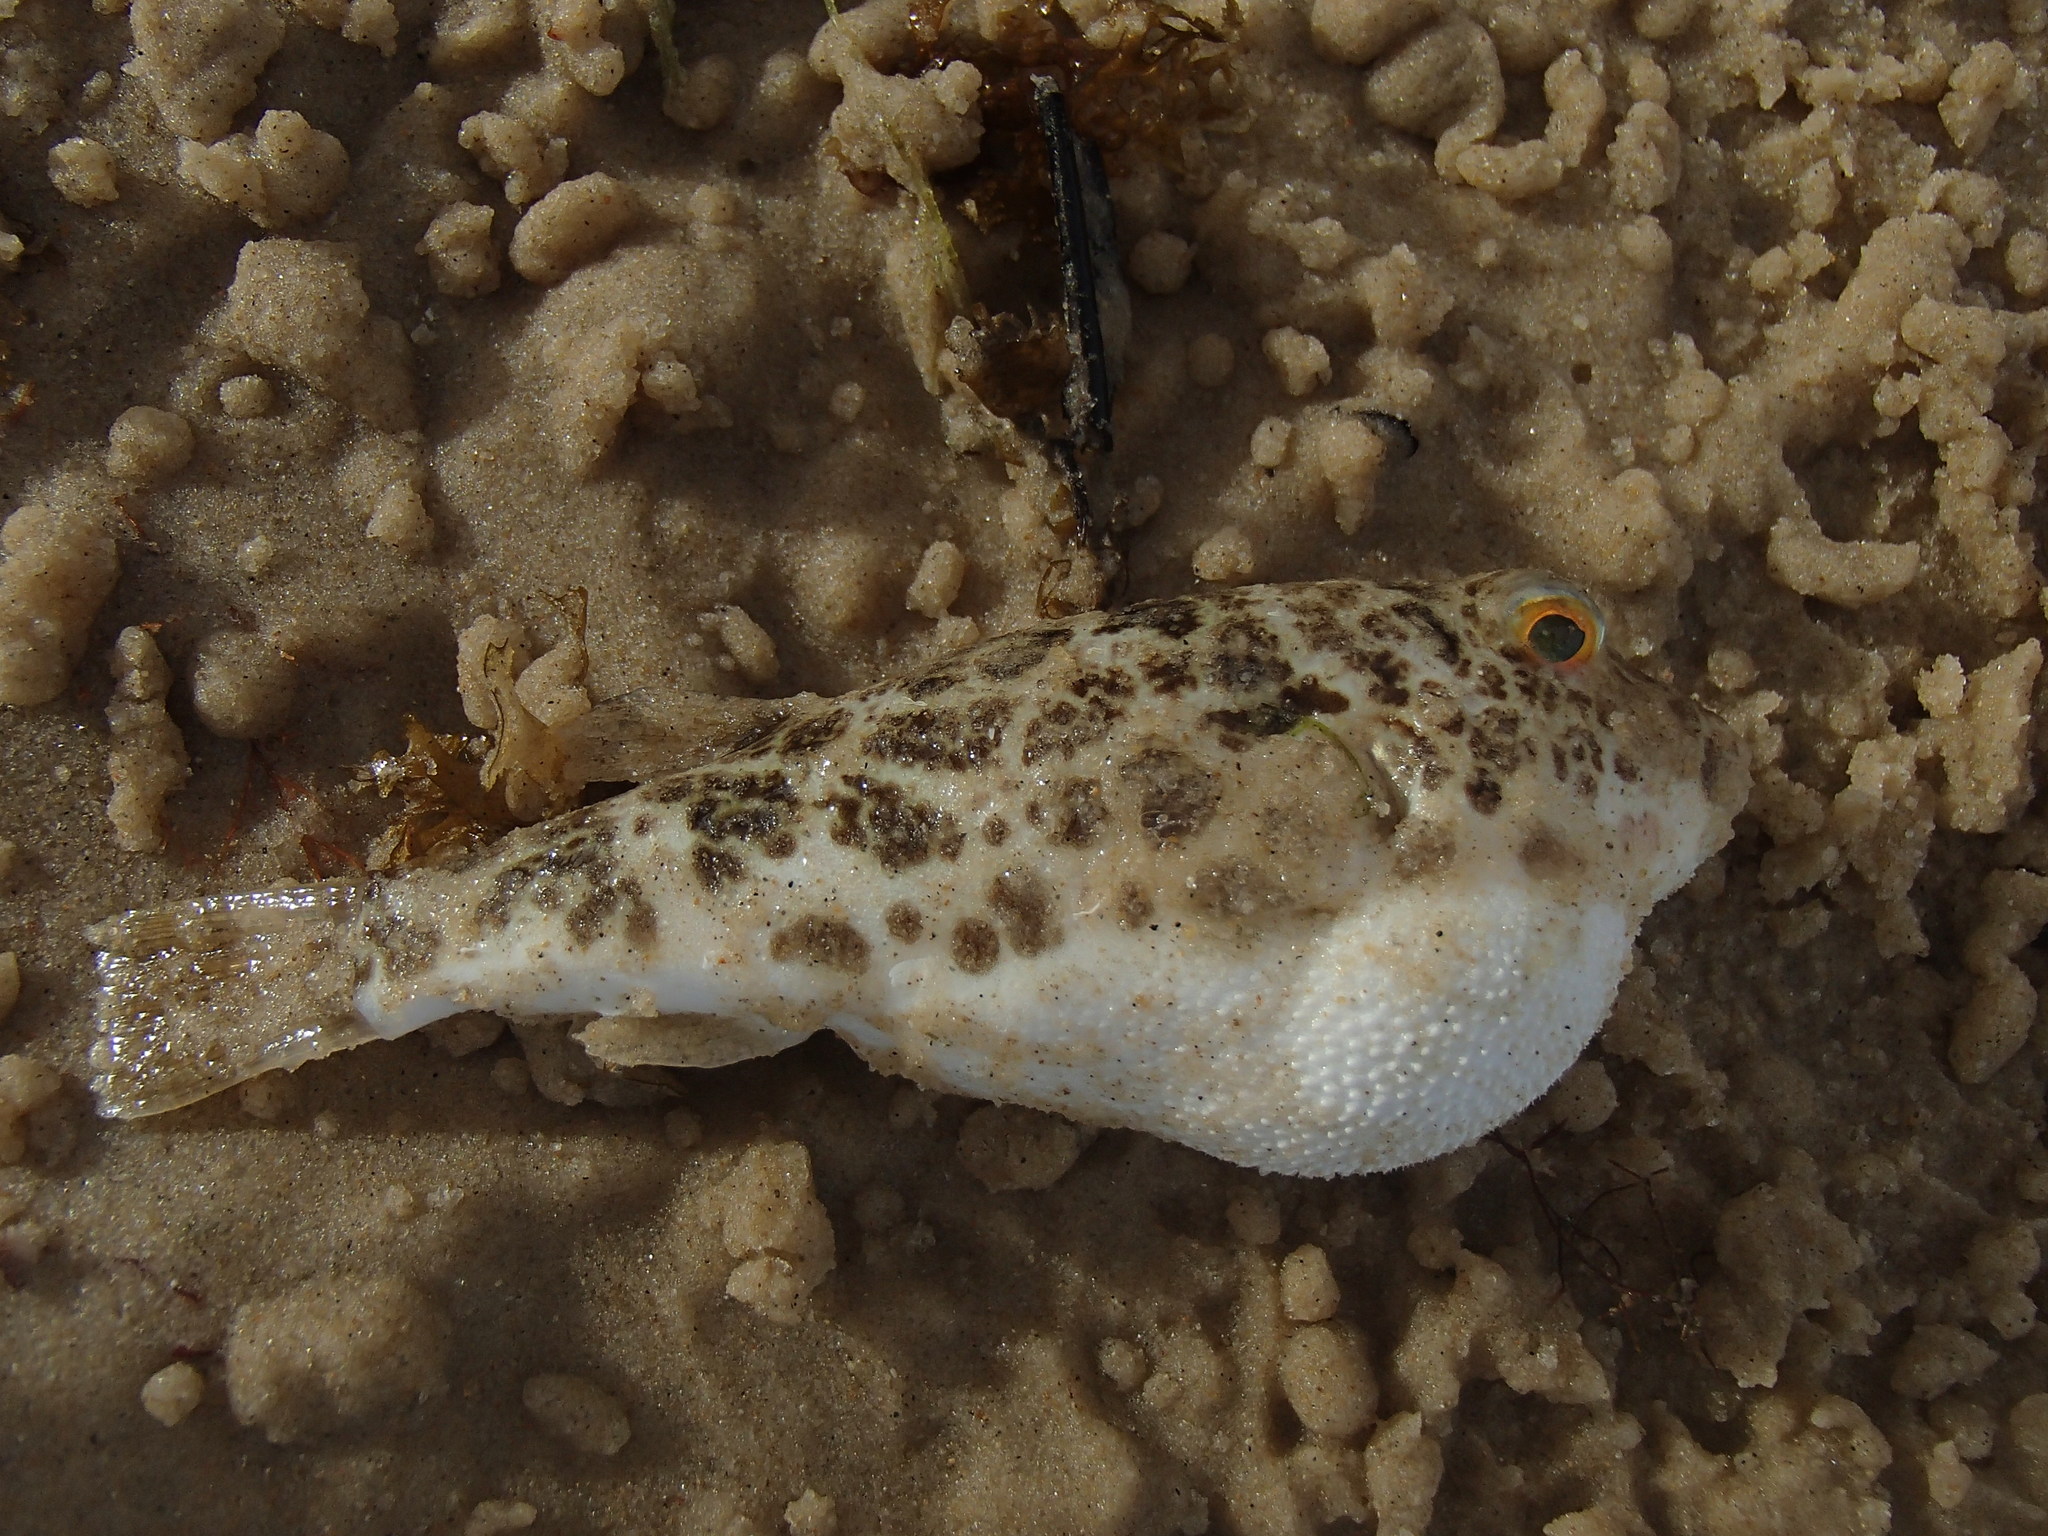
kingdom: Animalia
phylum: Chordata
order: Tetraodontiformes
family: Tetraodontidae
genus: Sphoeroides
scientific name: Sphoeroides greeleyi
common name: Green puffer
